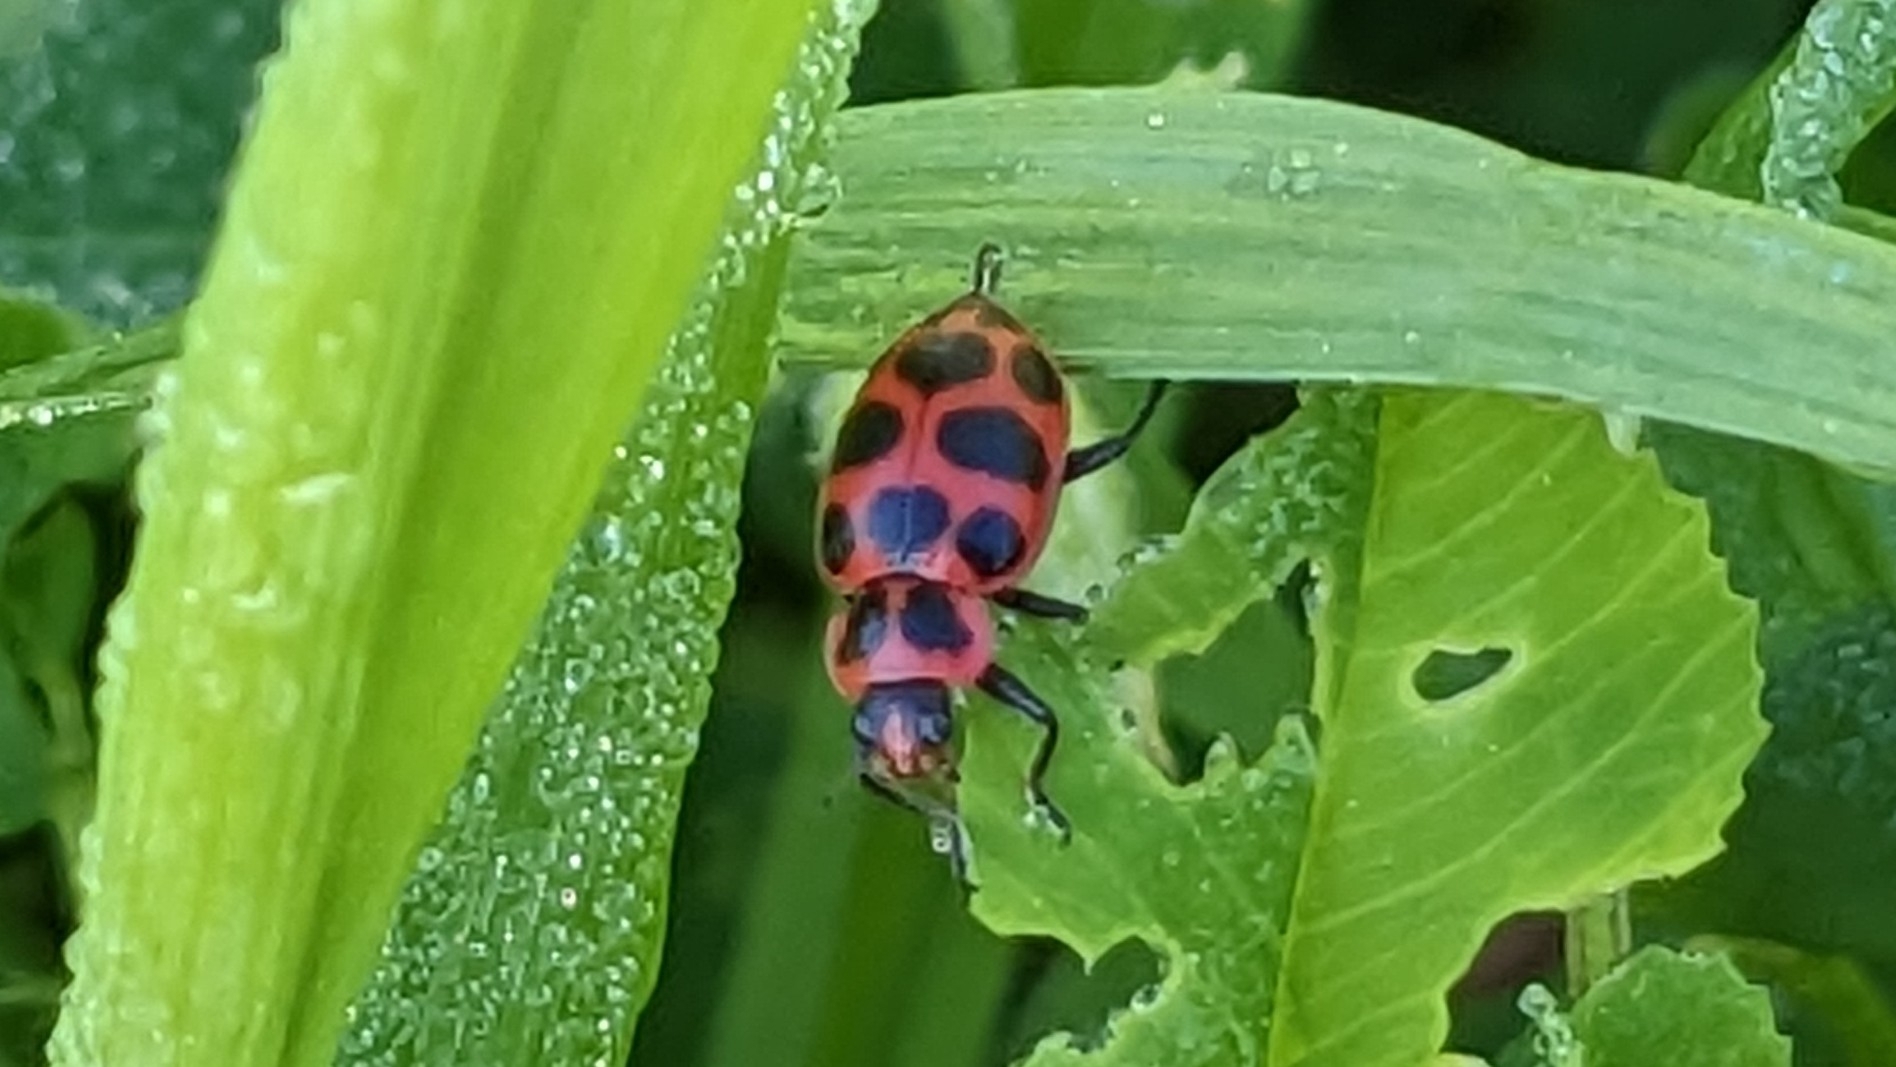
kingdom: Animalia
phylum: Arthropoda
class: Insecta
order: Coleoptera
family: Coccinellidae
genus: Coleomegilla
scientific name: Coleomegilla maculata
